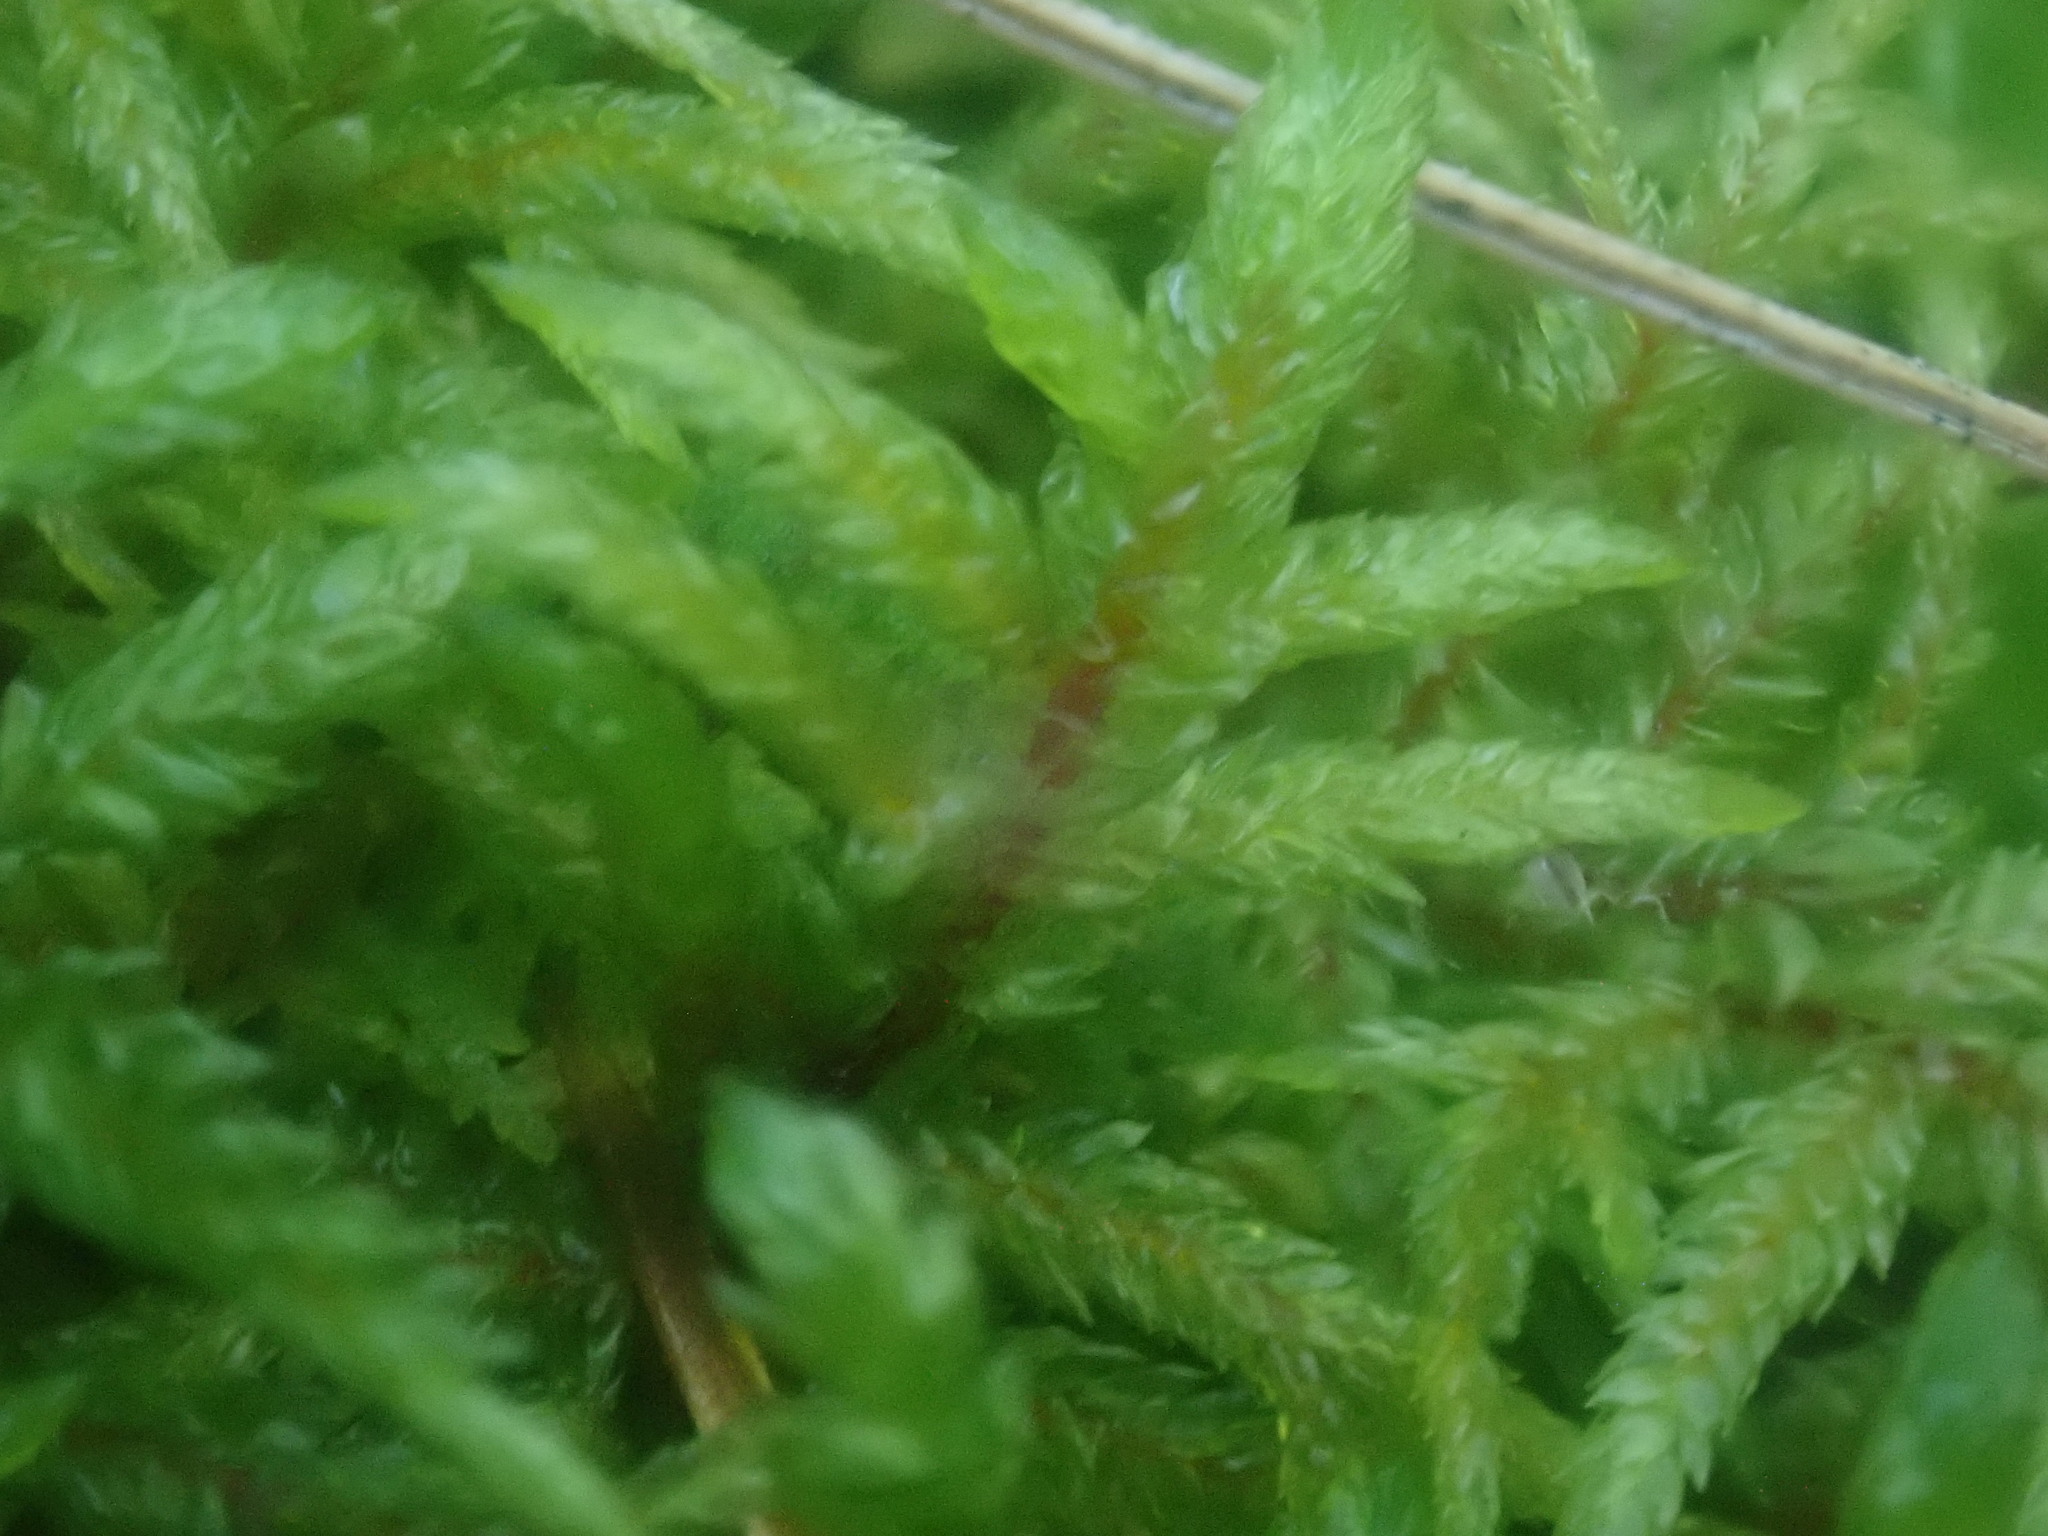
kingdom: Plantae
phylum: Bryophyta
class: Bryopsida
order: Hypnales
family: Hylocomiaceae
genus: Pleurozium
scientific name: Pleurozium schreberi
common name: Red-stemmed feather moss
